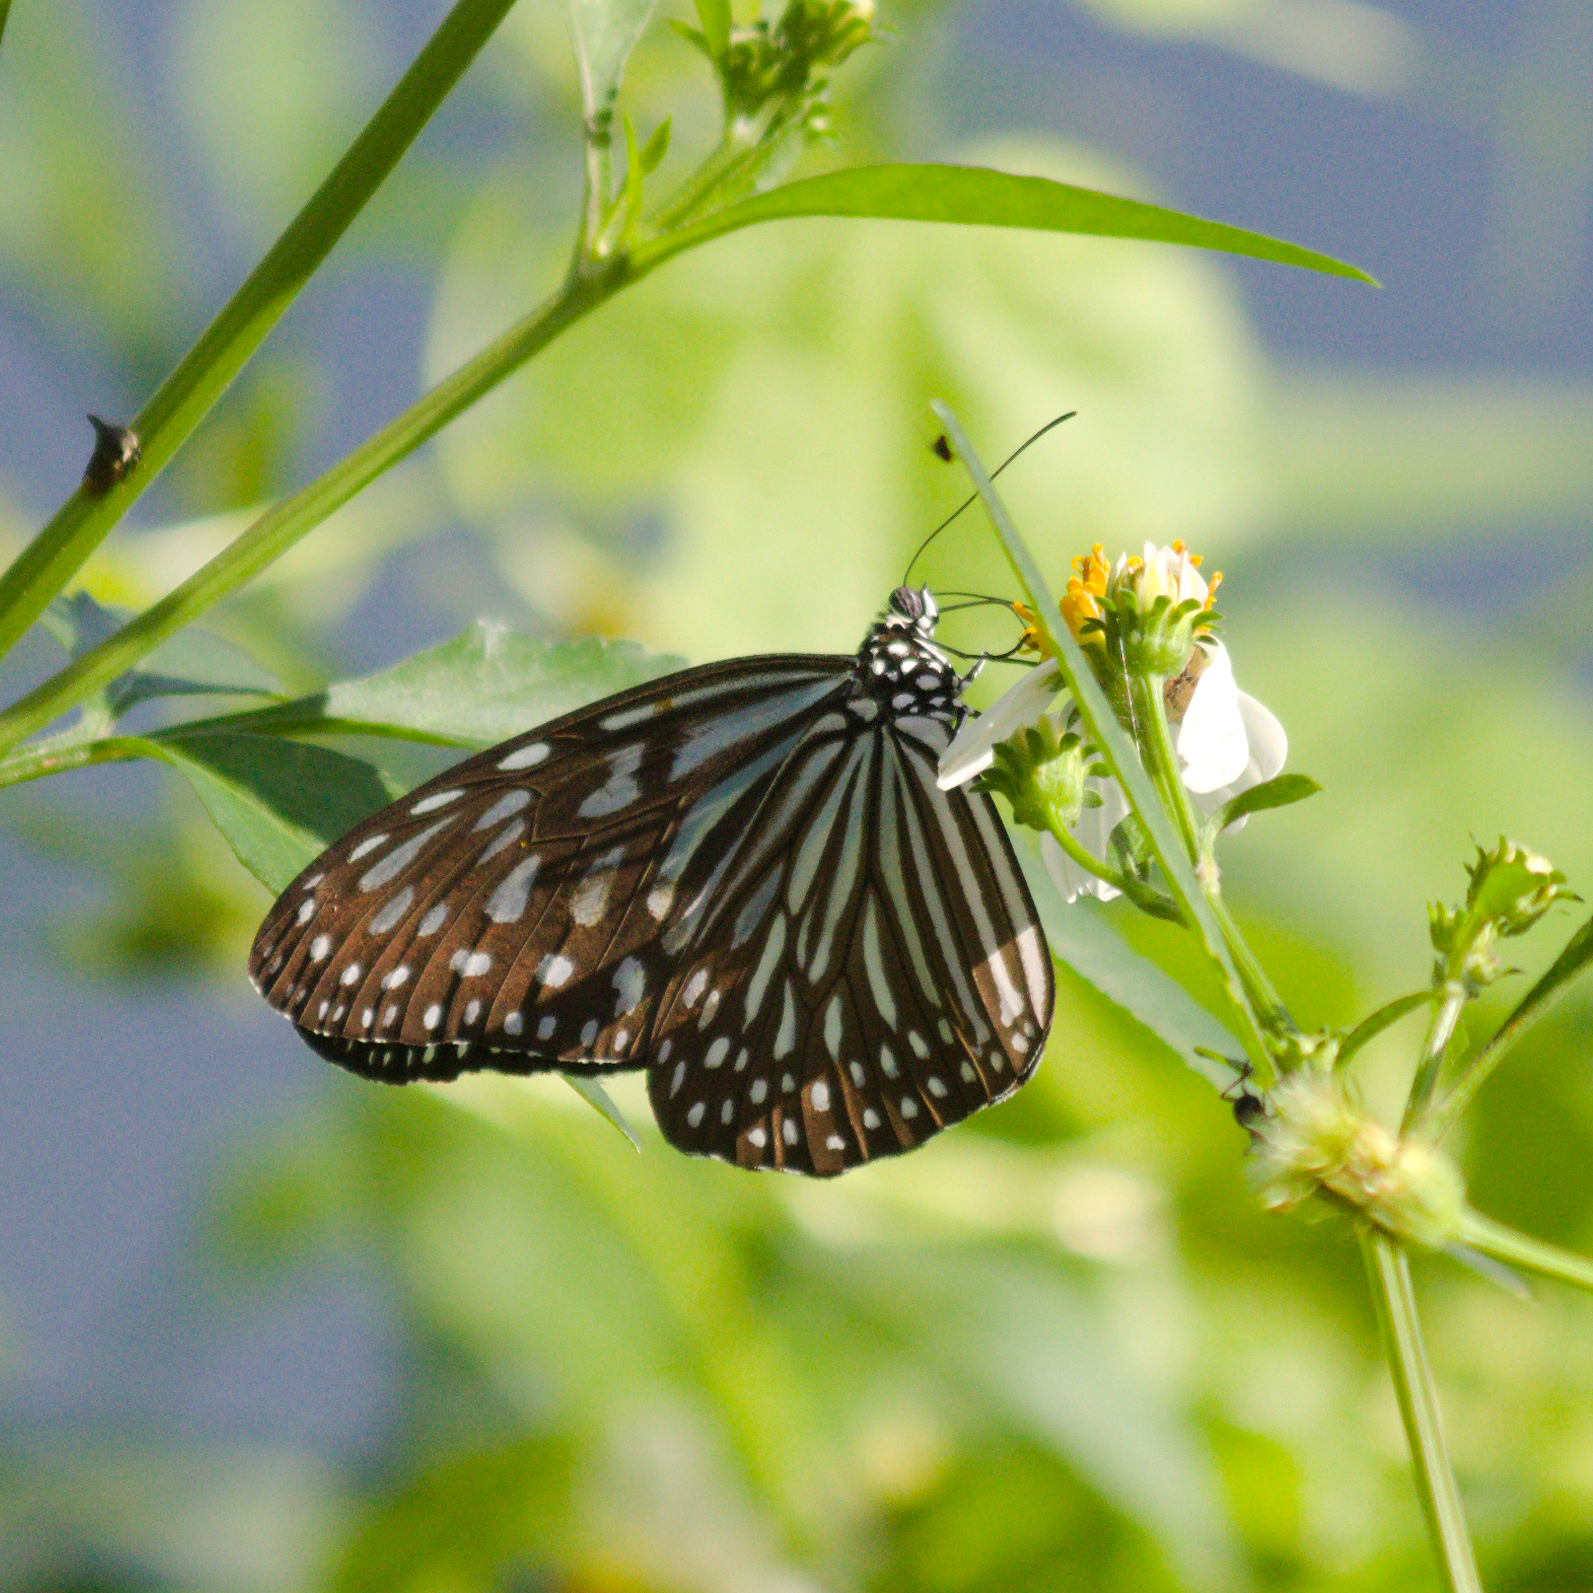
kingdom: Animalia
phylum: Arthropoda
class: Insecta
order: Lepidoptera
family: Nymphalidae
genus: Ideopsis
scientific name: Ideopsis vulgaris
